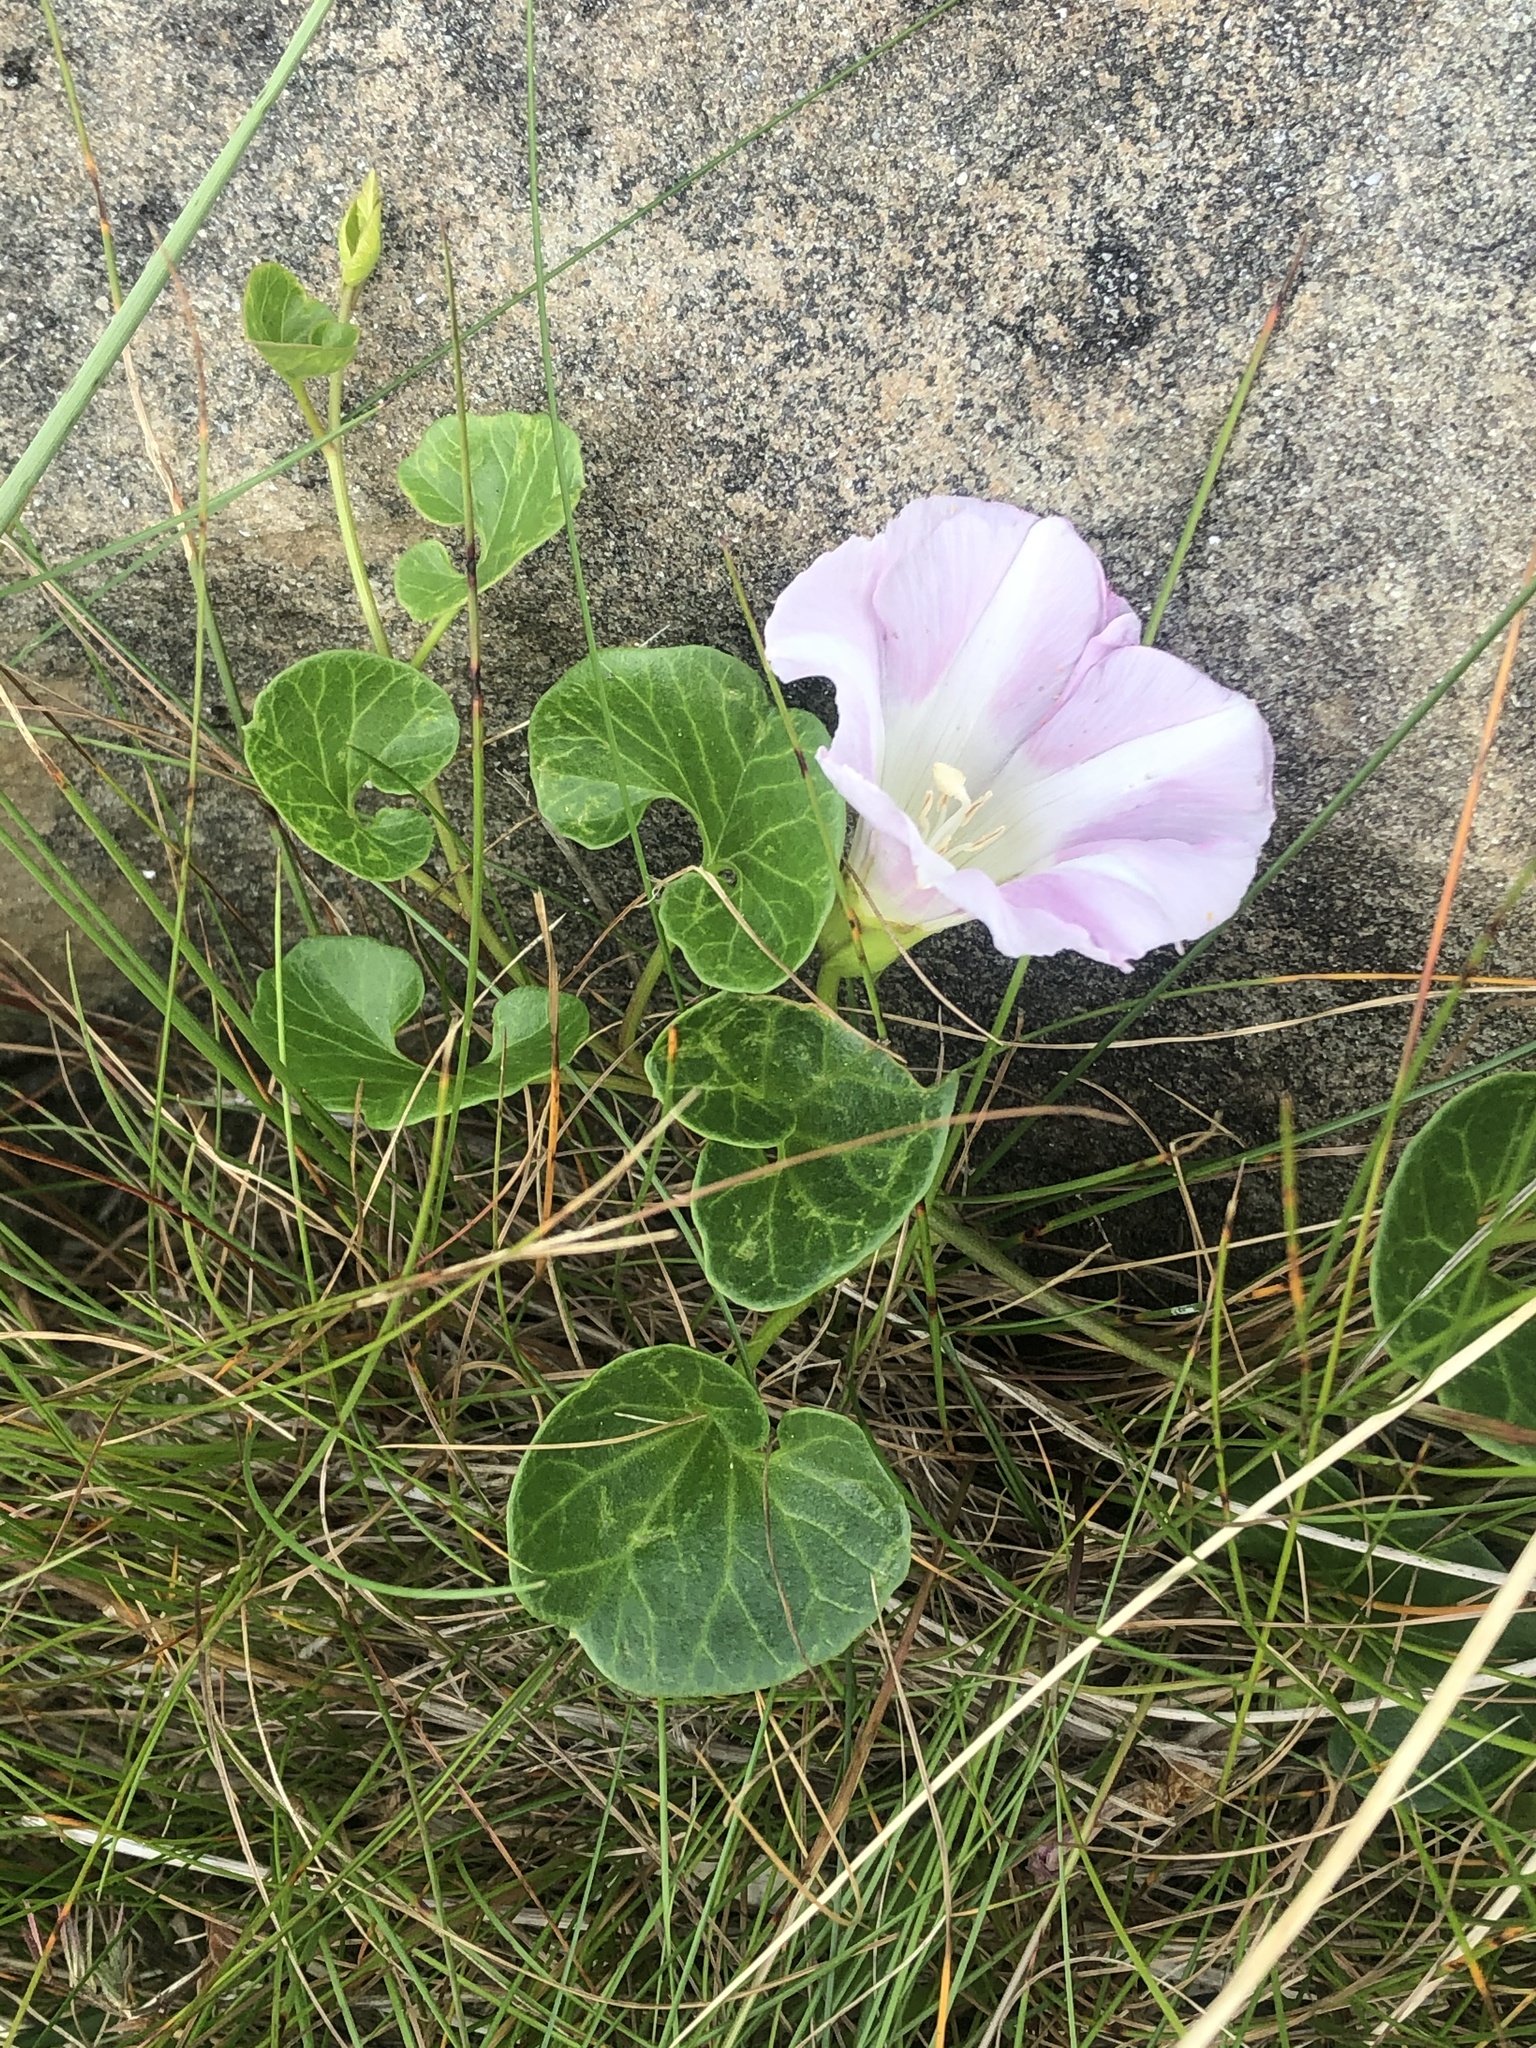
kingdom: Plantae
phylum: Tracheophyta
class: Magnoliopsida
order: Solanales
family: Convolvulaceae
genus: Calystegia
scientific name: Calystegia soldanella
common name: Sea bindweed
